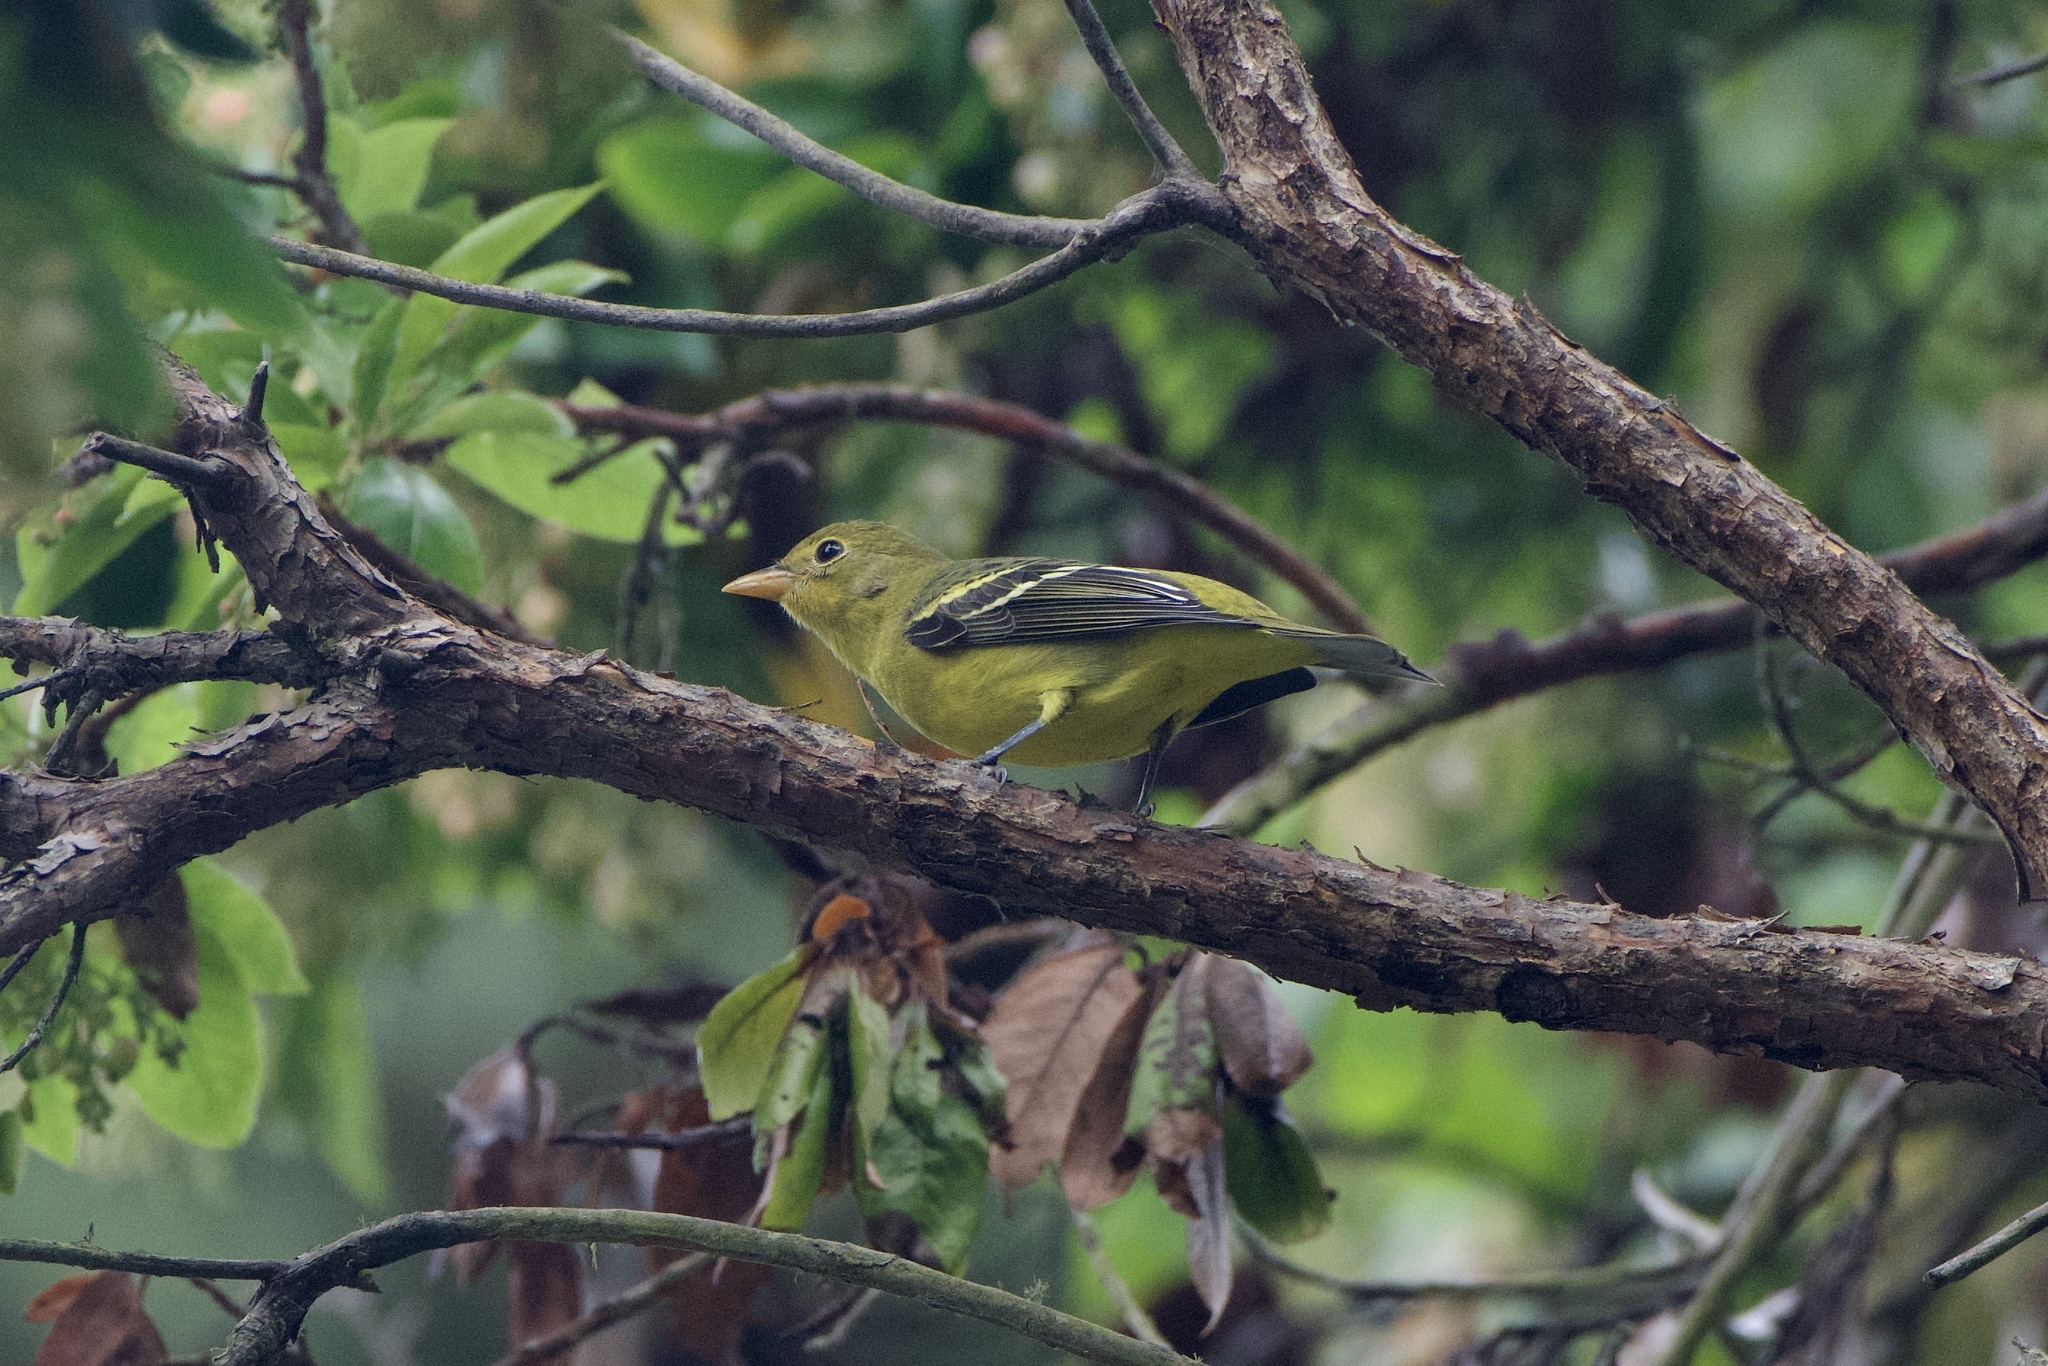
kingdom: Animalia
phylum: Chordata
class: Aves
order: Passeriformes
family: Cardinalidae
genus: Piranga
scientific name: Piranga ludoviciana
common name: Western tanager
